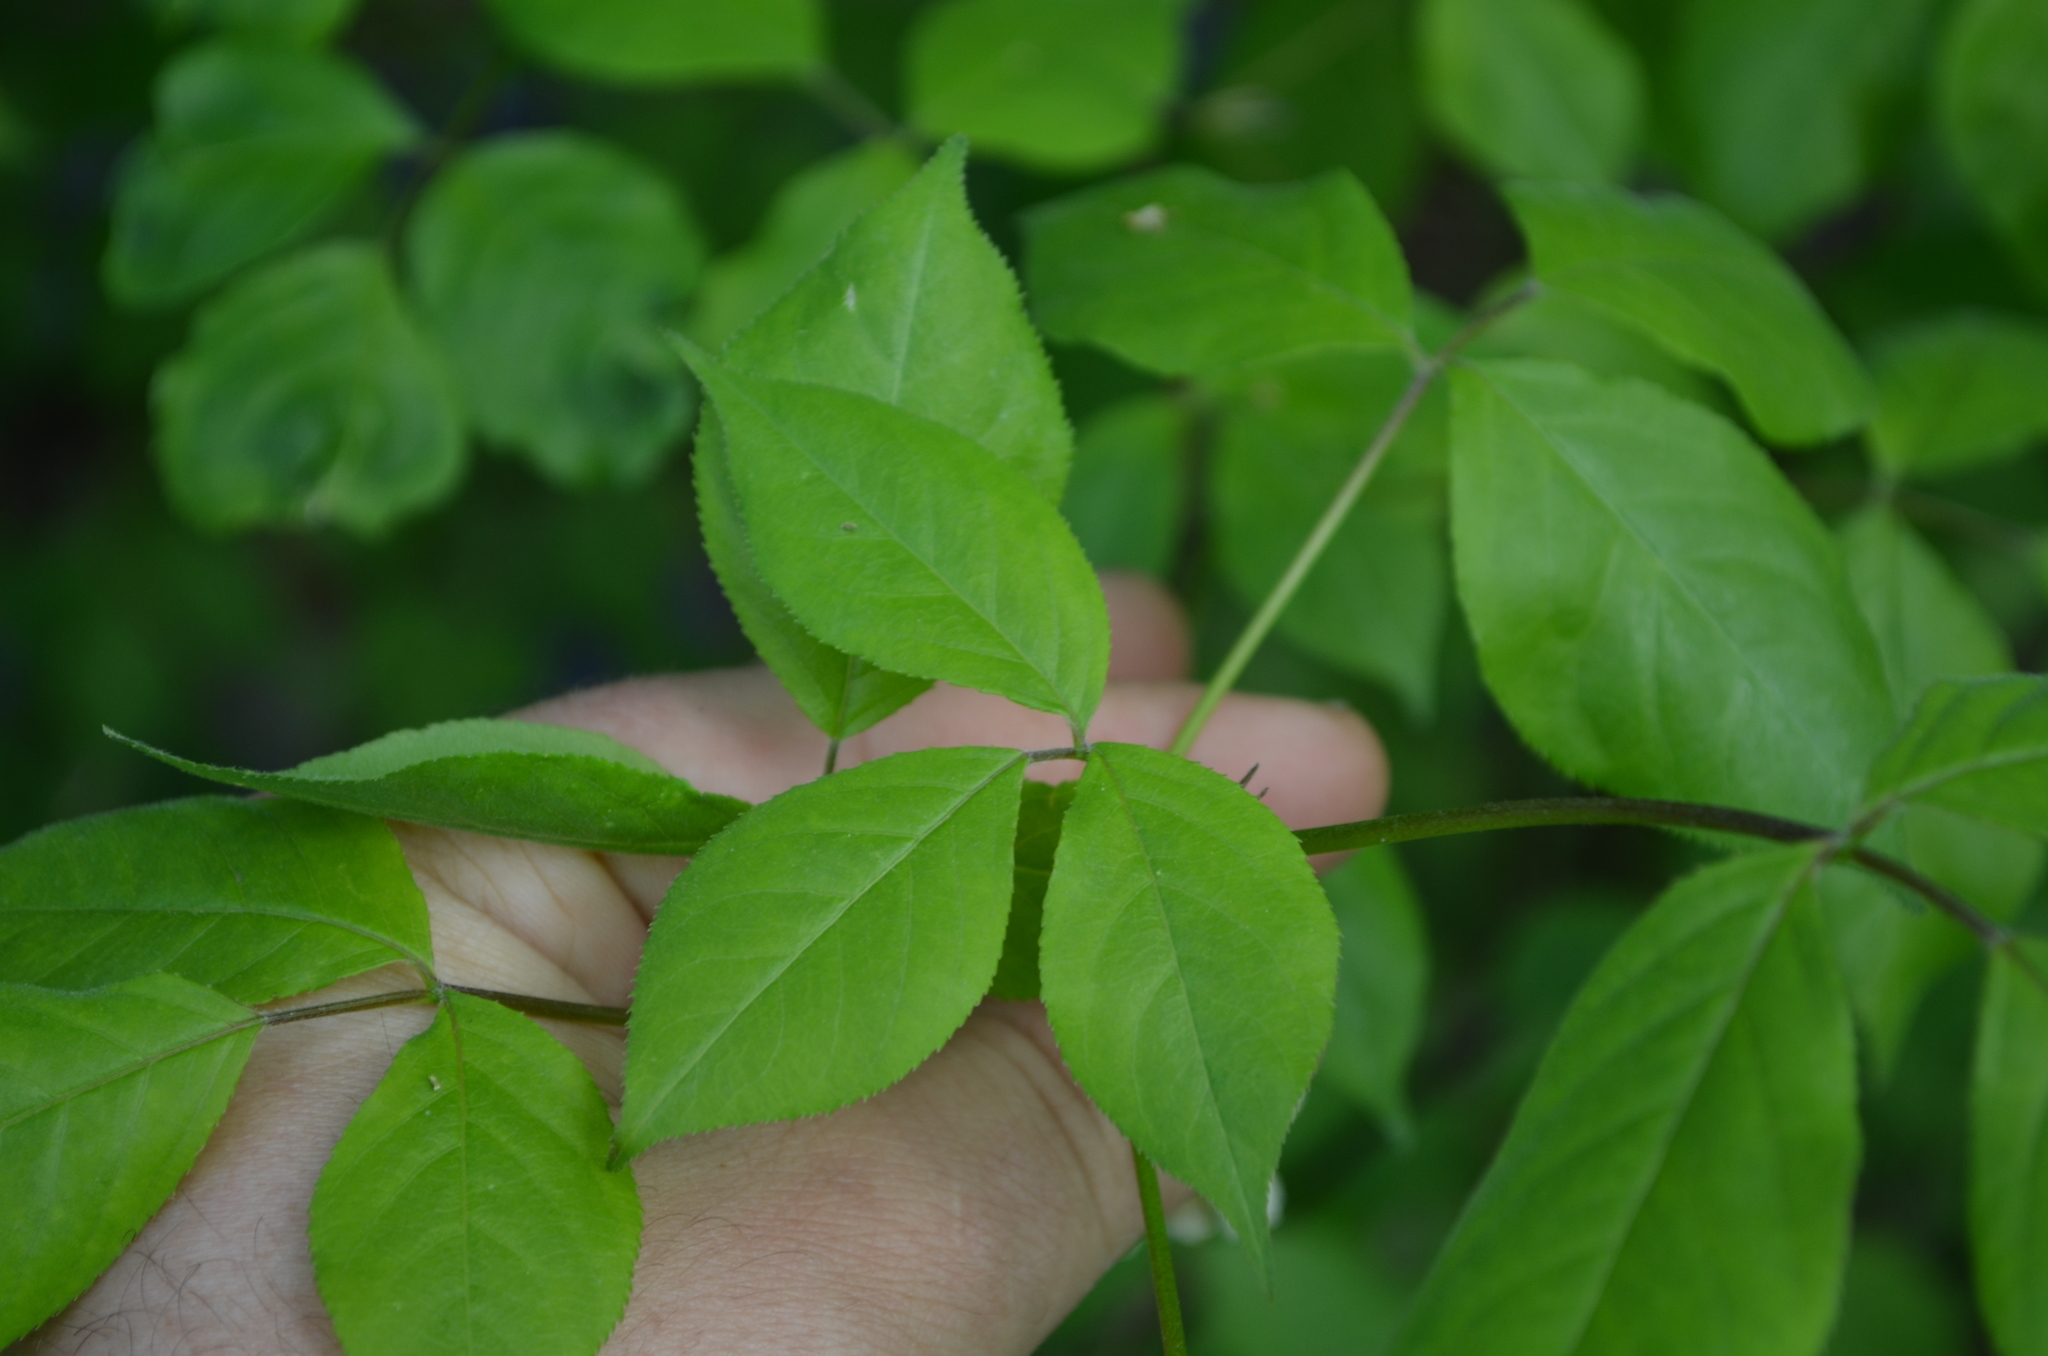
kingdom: Plantae
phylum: Tracheophyta
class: Magnoliopsida
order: Crossosomatales
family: Staphyleaceae
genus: Staphylea
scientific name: Staphylea trifolia
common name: American bladdernut
